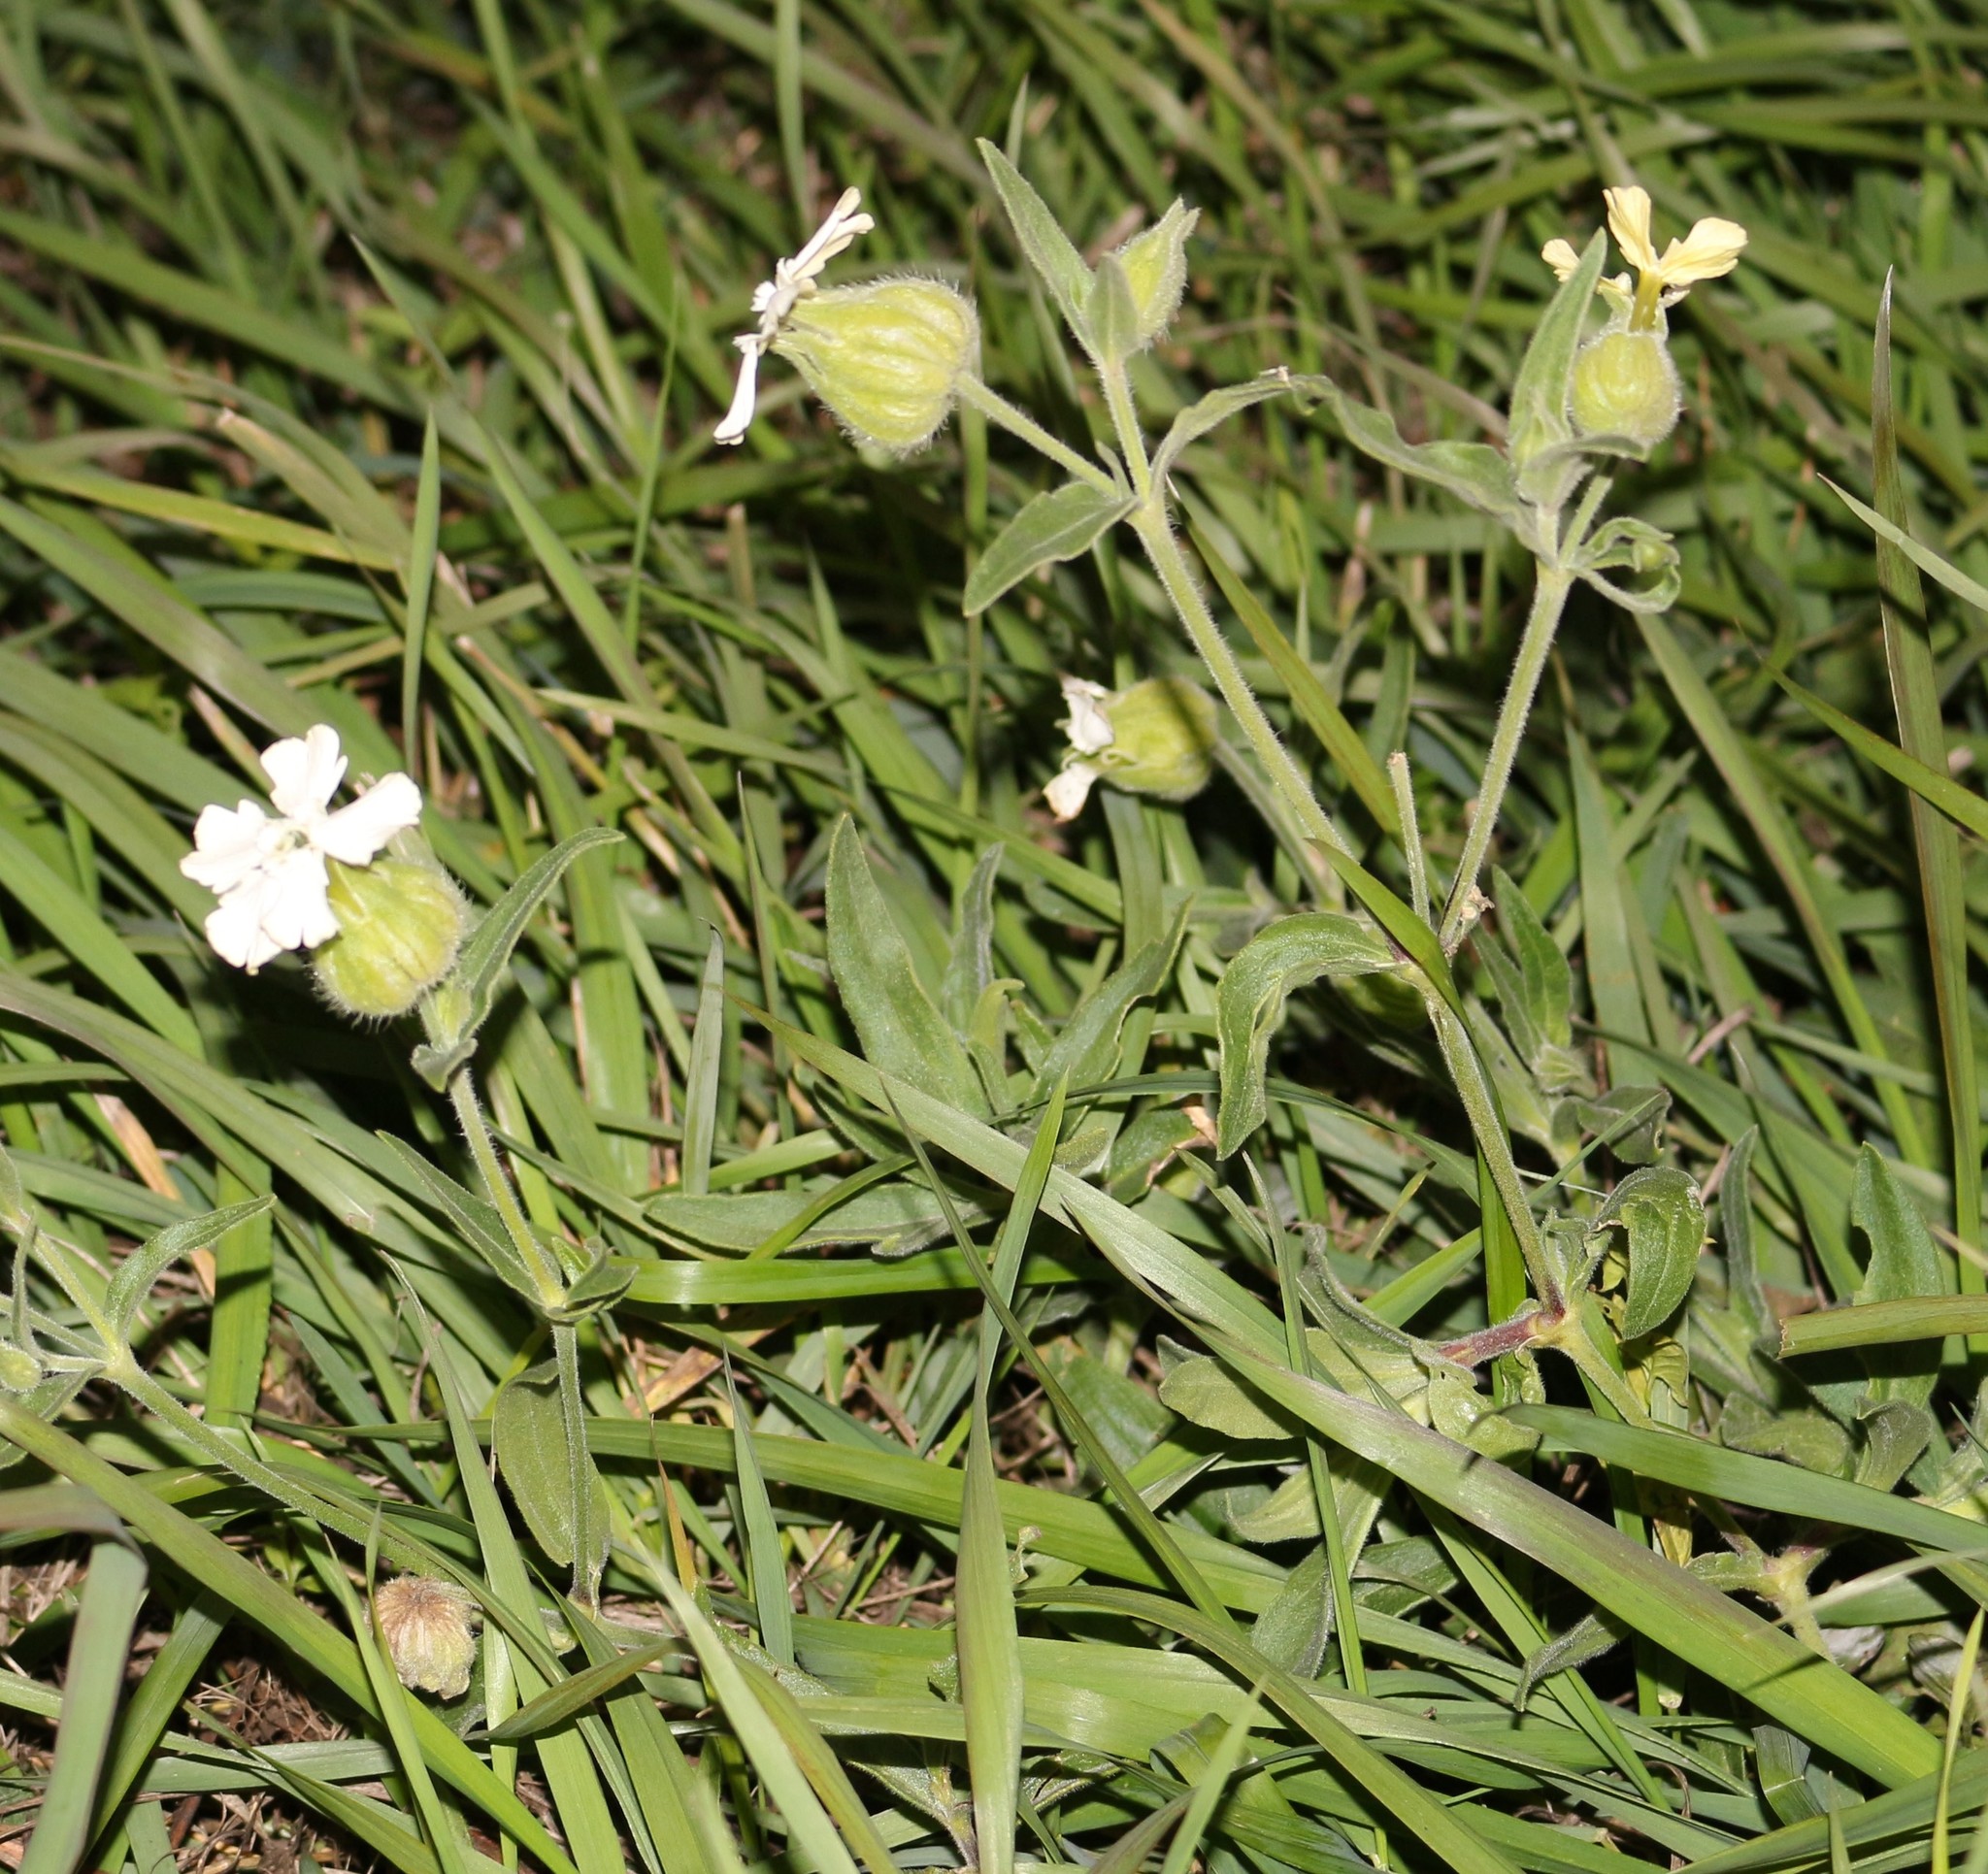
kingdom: Plantae
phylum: Tracheophyta
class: Magnoliopsida
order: Caryophyllales
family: Caryophyllaceae
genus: Silene
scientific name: Silene latifolia
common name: White campion
